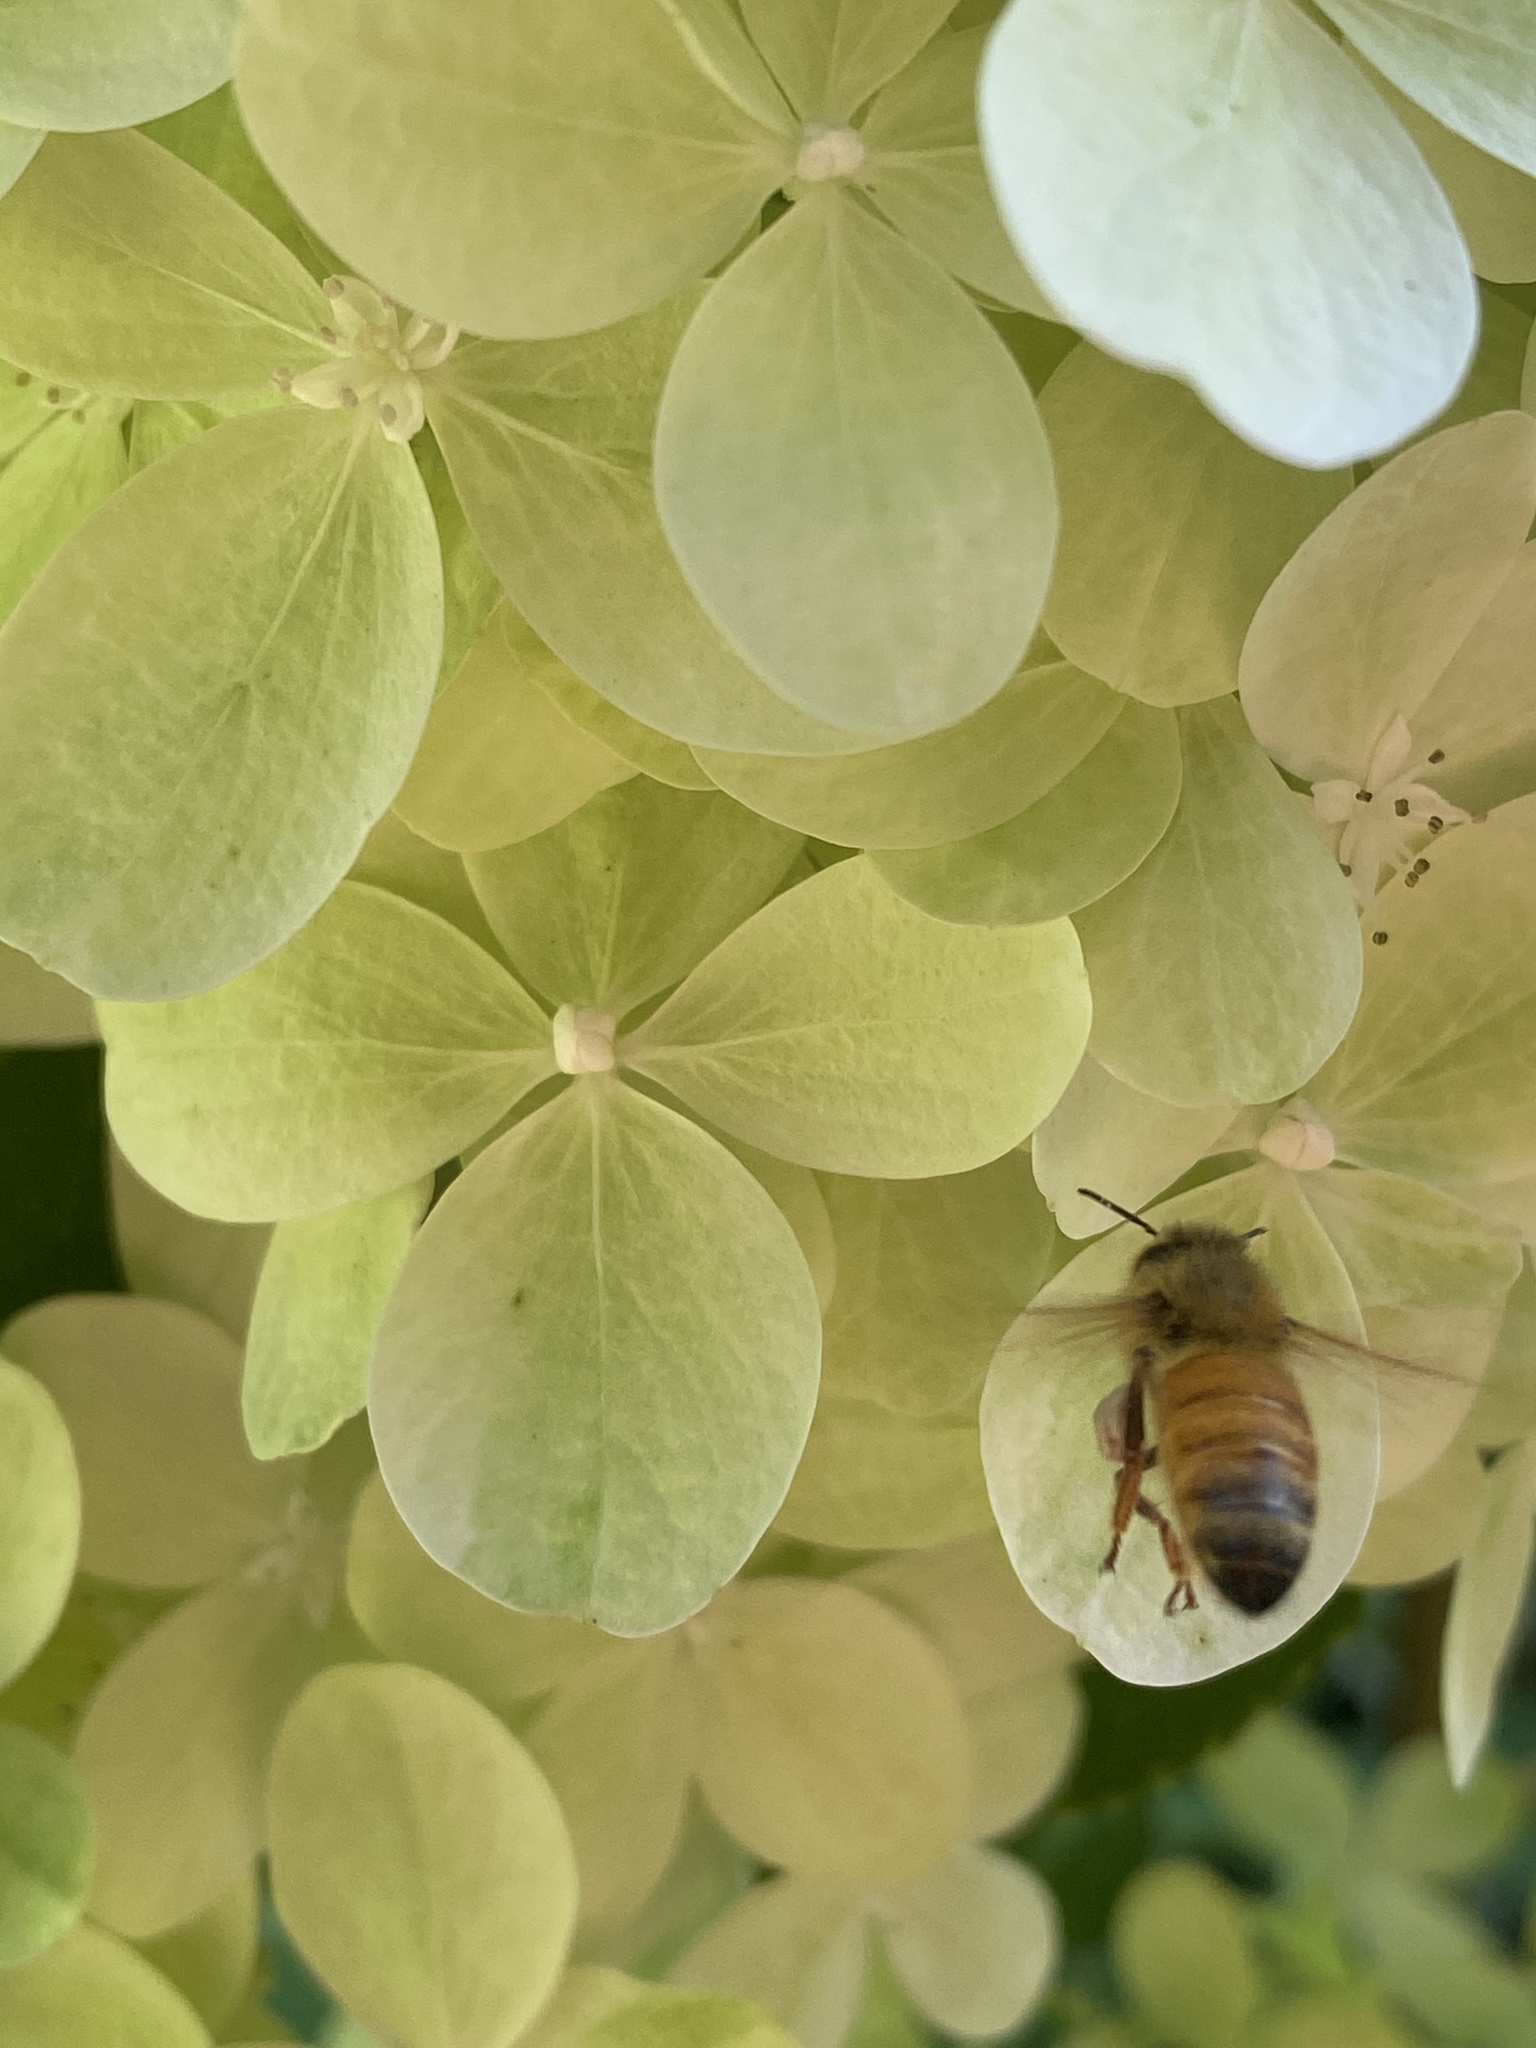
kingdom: Animalia
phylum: Arthropoda
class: Insecta
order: Hymenoptera
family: Apidae
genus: Apis
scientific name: Apis mellifera
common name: Honey bee
